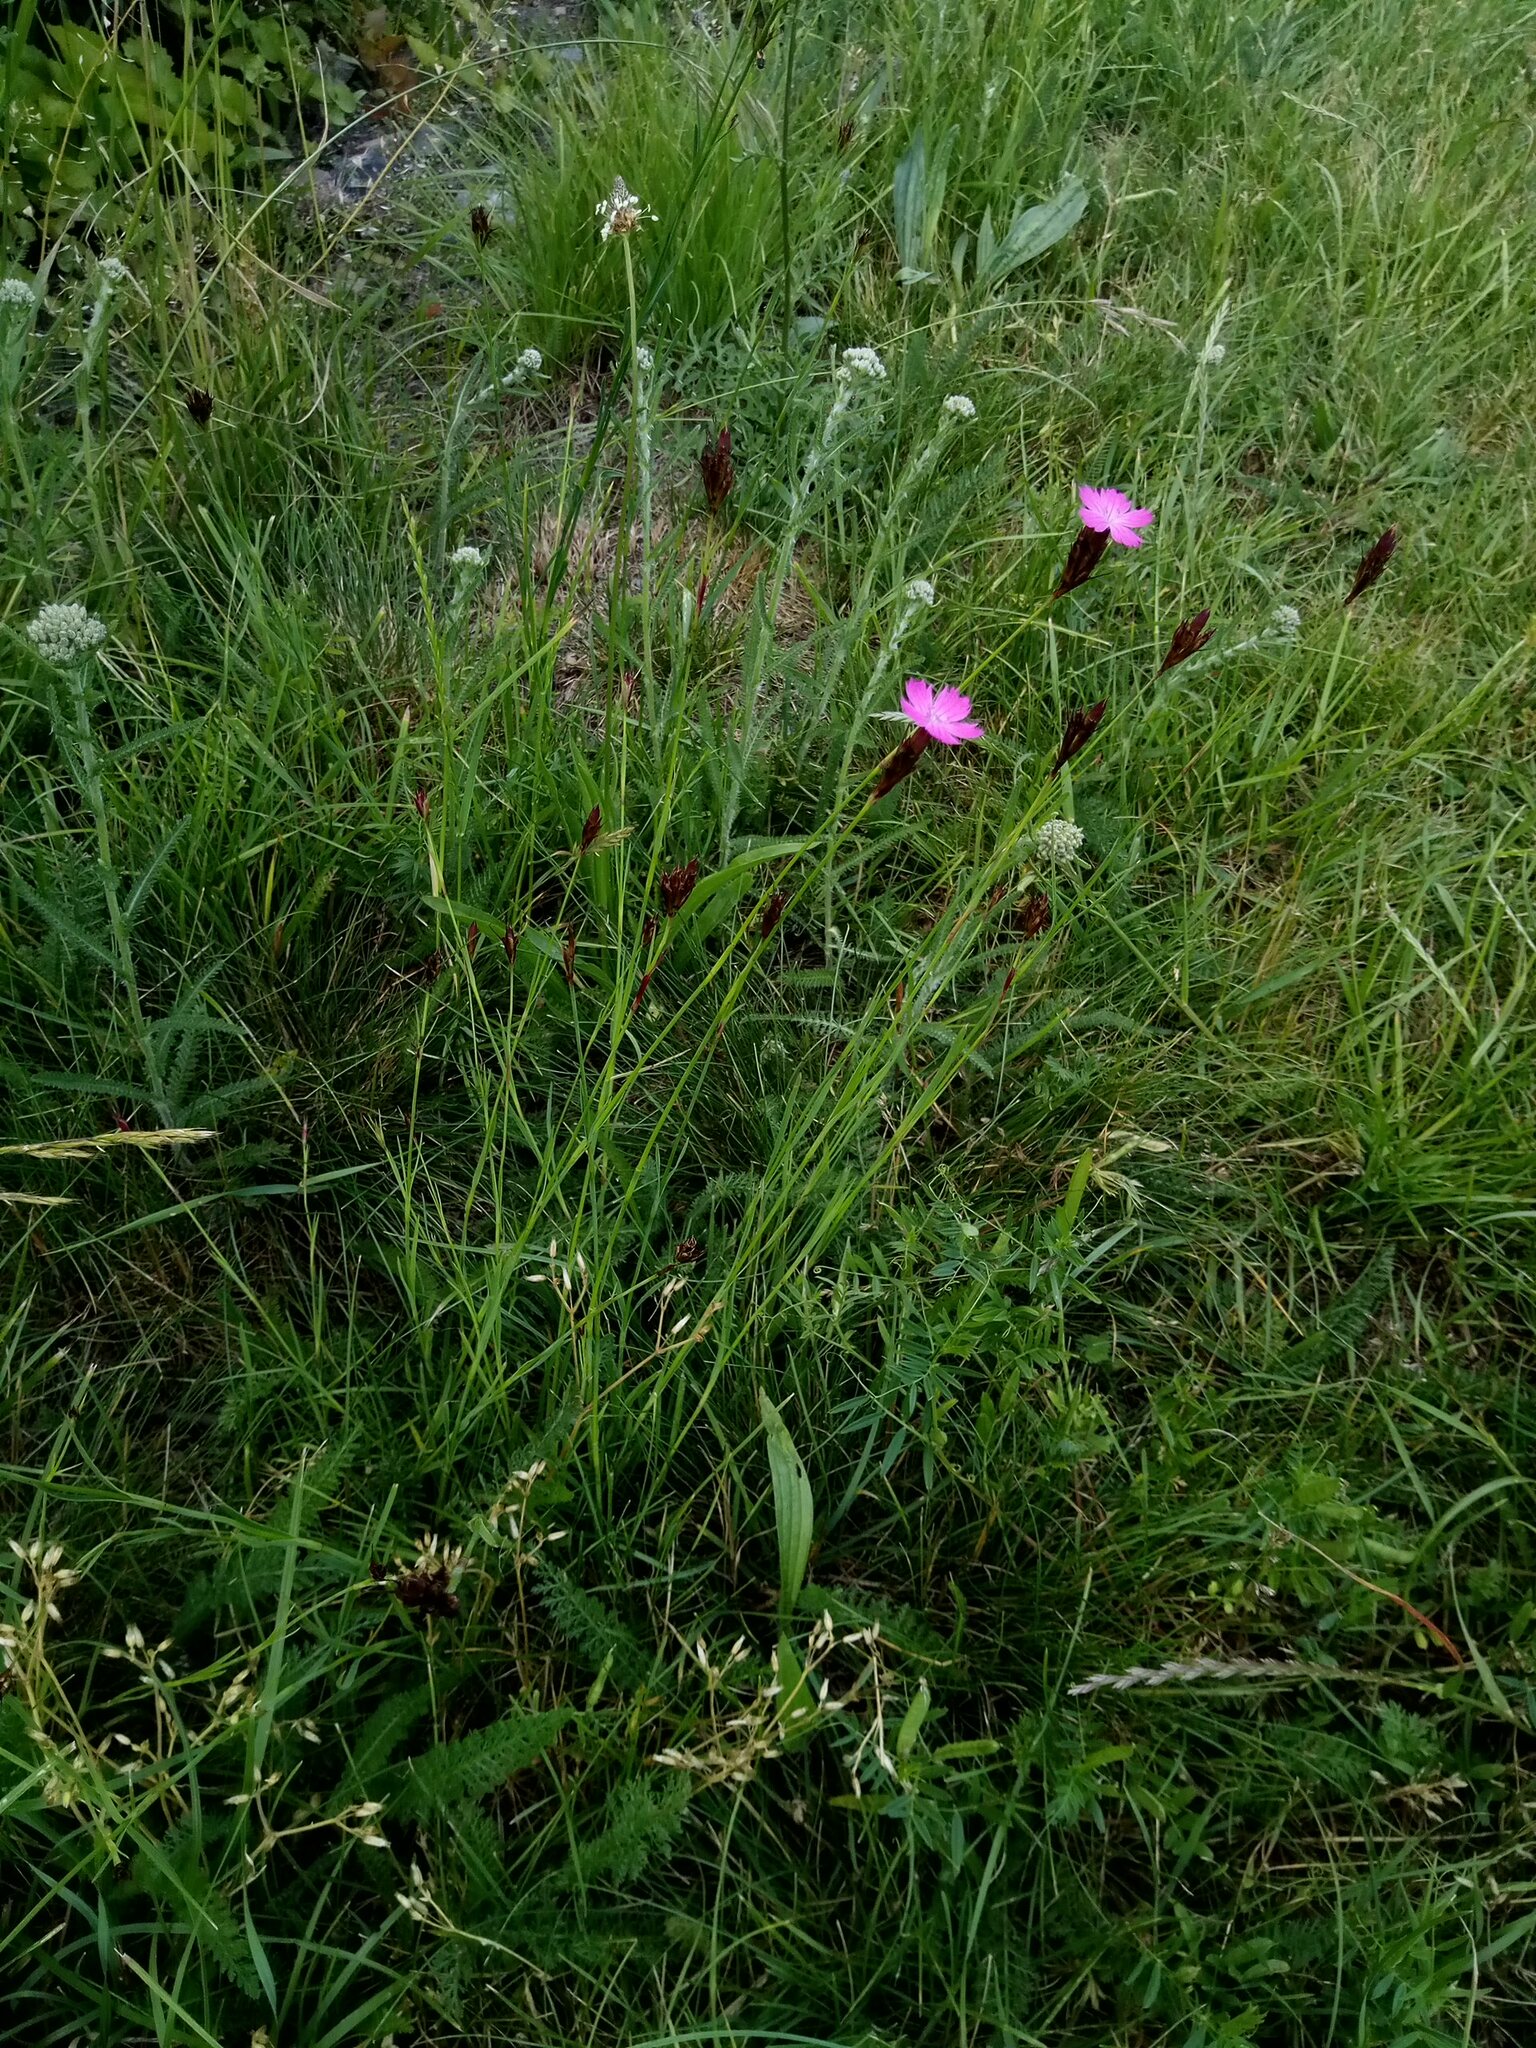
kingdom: Plantae
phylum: Tracheophyta
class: Magnoliopsida
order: Caryophyllales
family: Caryophyllaceae
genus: Dianthus
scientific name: Dianthus carthusianorum
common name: Carthusian pink
